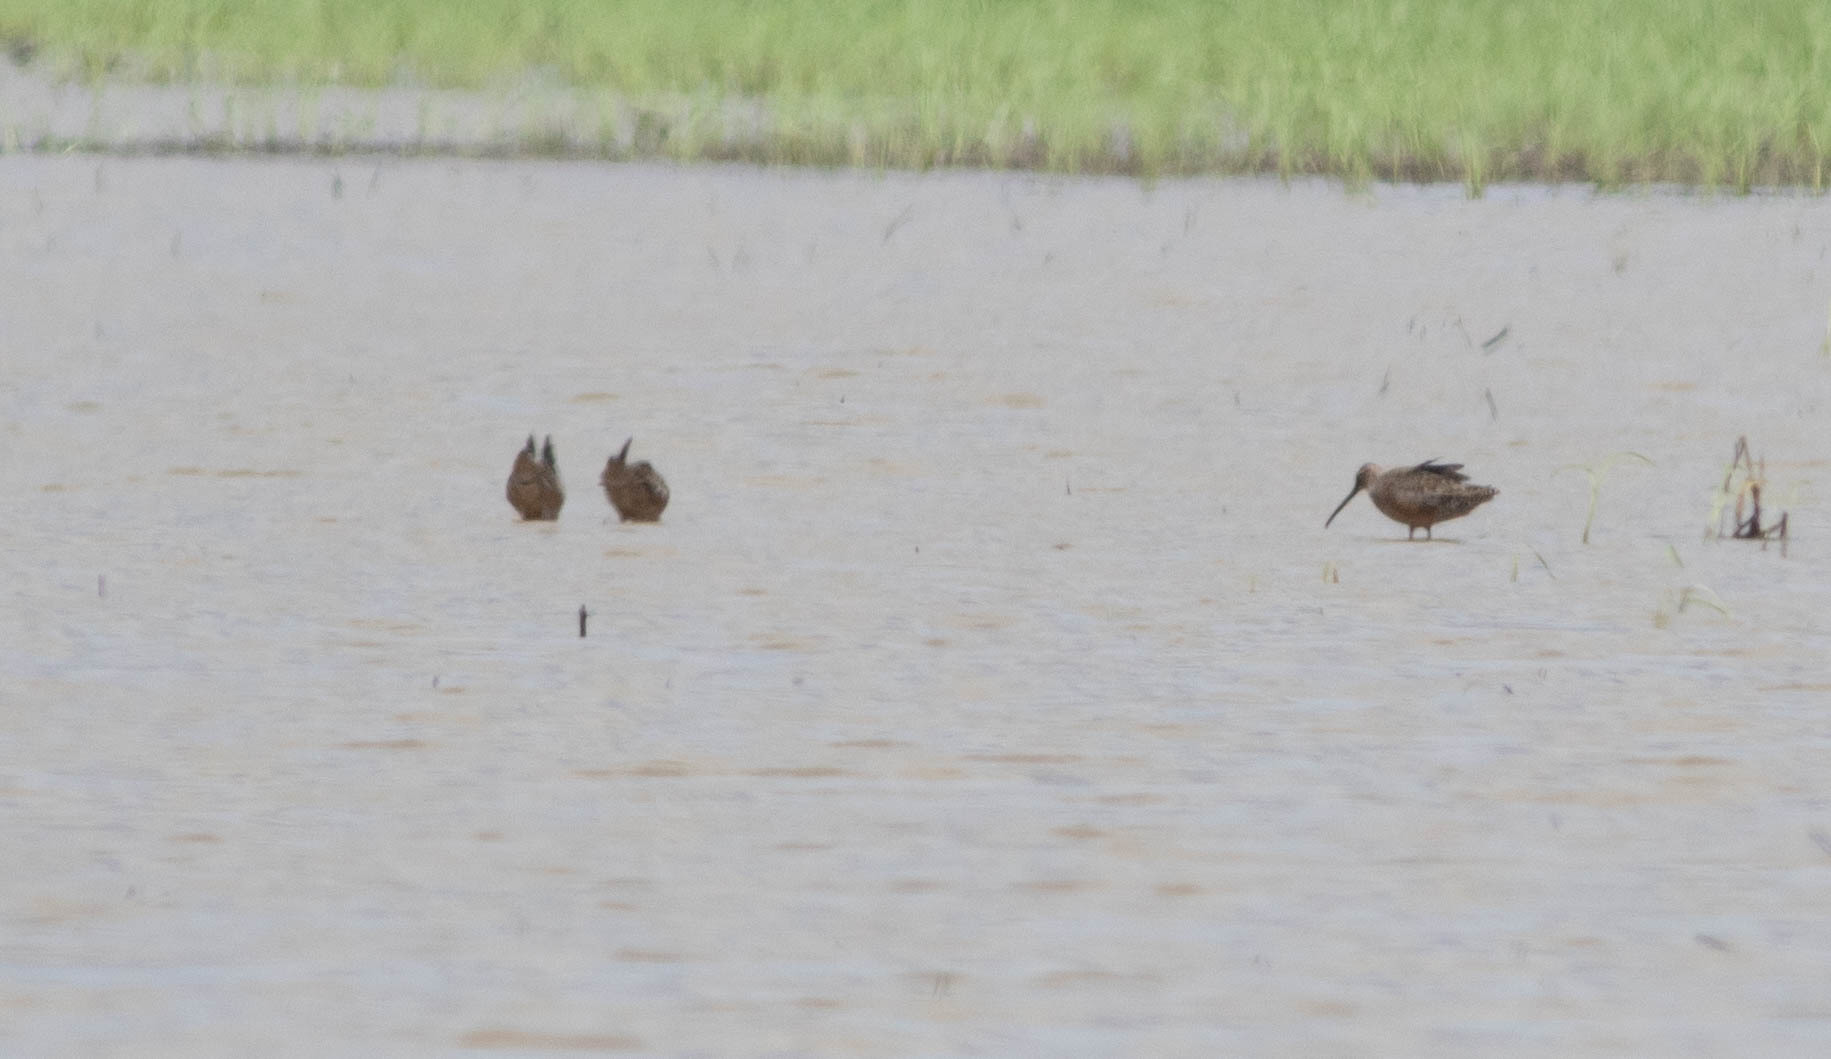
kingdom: Animalia
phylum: Chordata
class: Aves
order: Charadriiformes
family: Scolopacidae
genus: Limnodromus
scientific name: Limnodromus scolopaceus
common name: Long-billed dowitcher
